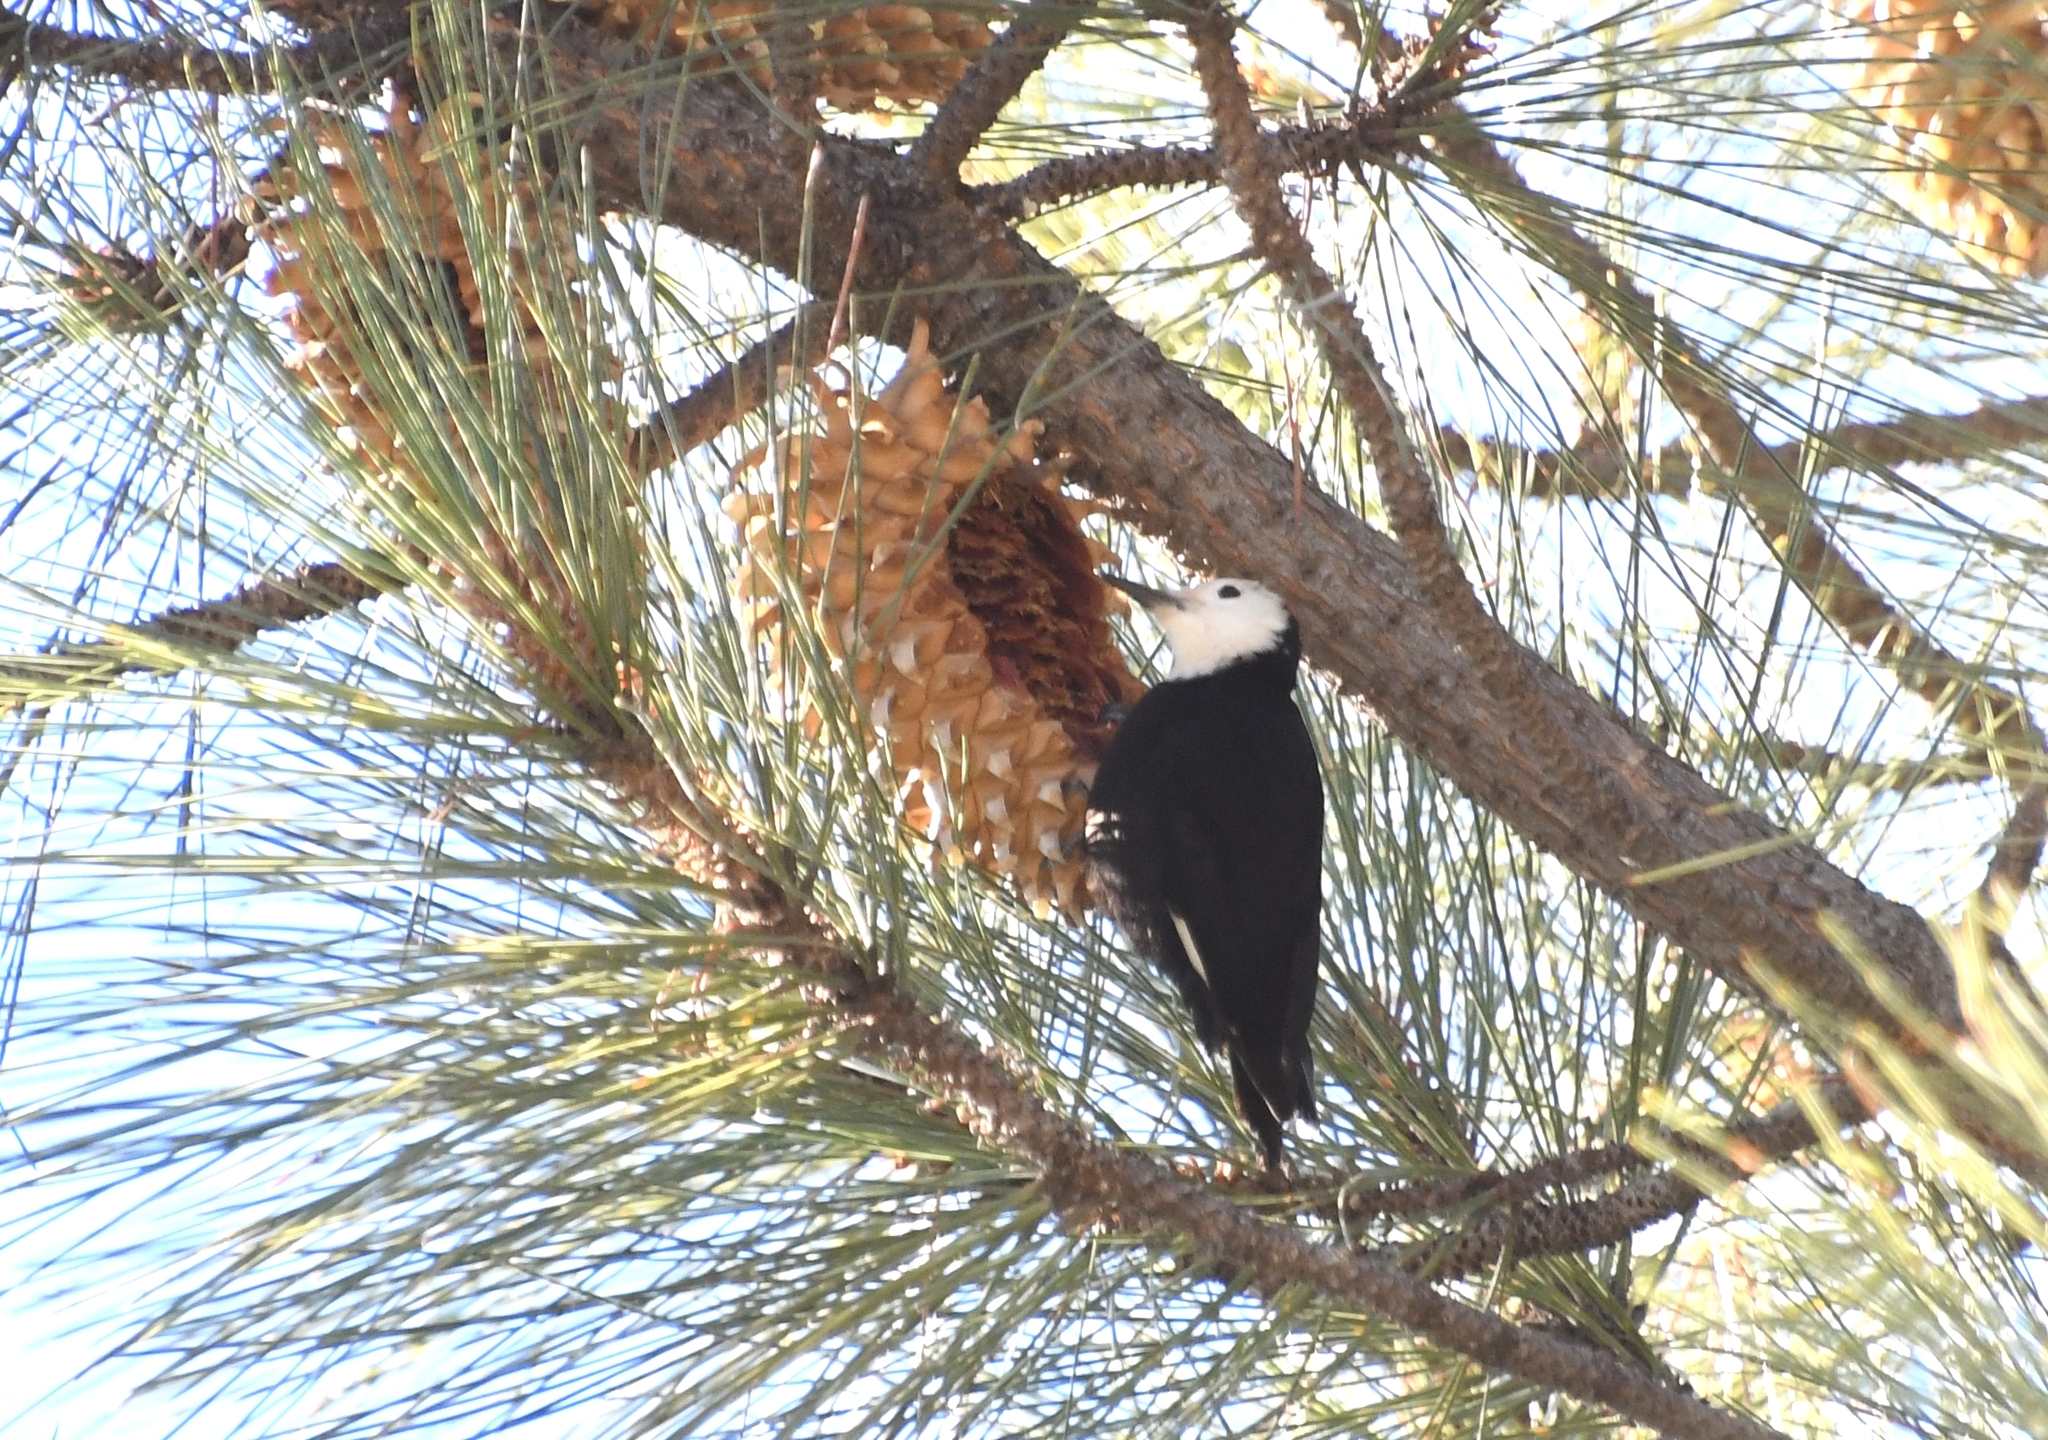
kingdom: Animalia
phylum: Chordata
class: Aves
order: Piciformes
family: Picidae
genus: Leuconotopicus
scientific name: Leuconotopicus albolarvatus
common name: White-headed woodpecker
